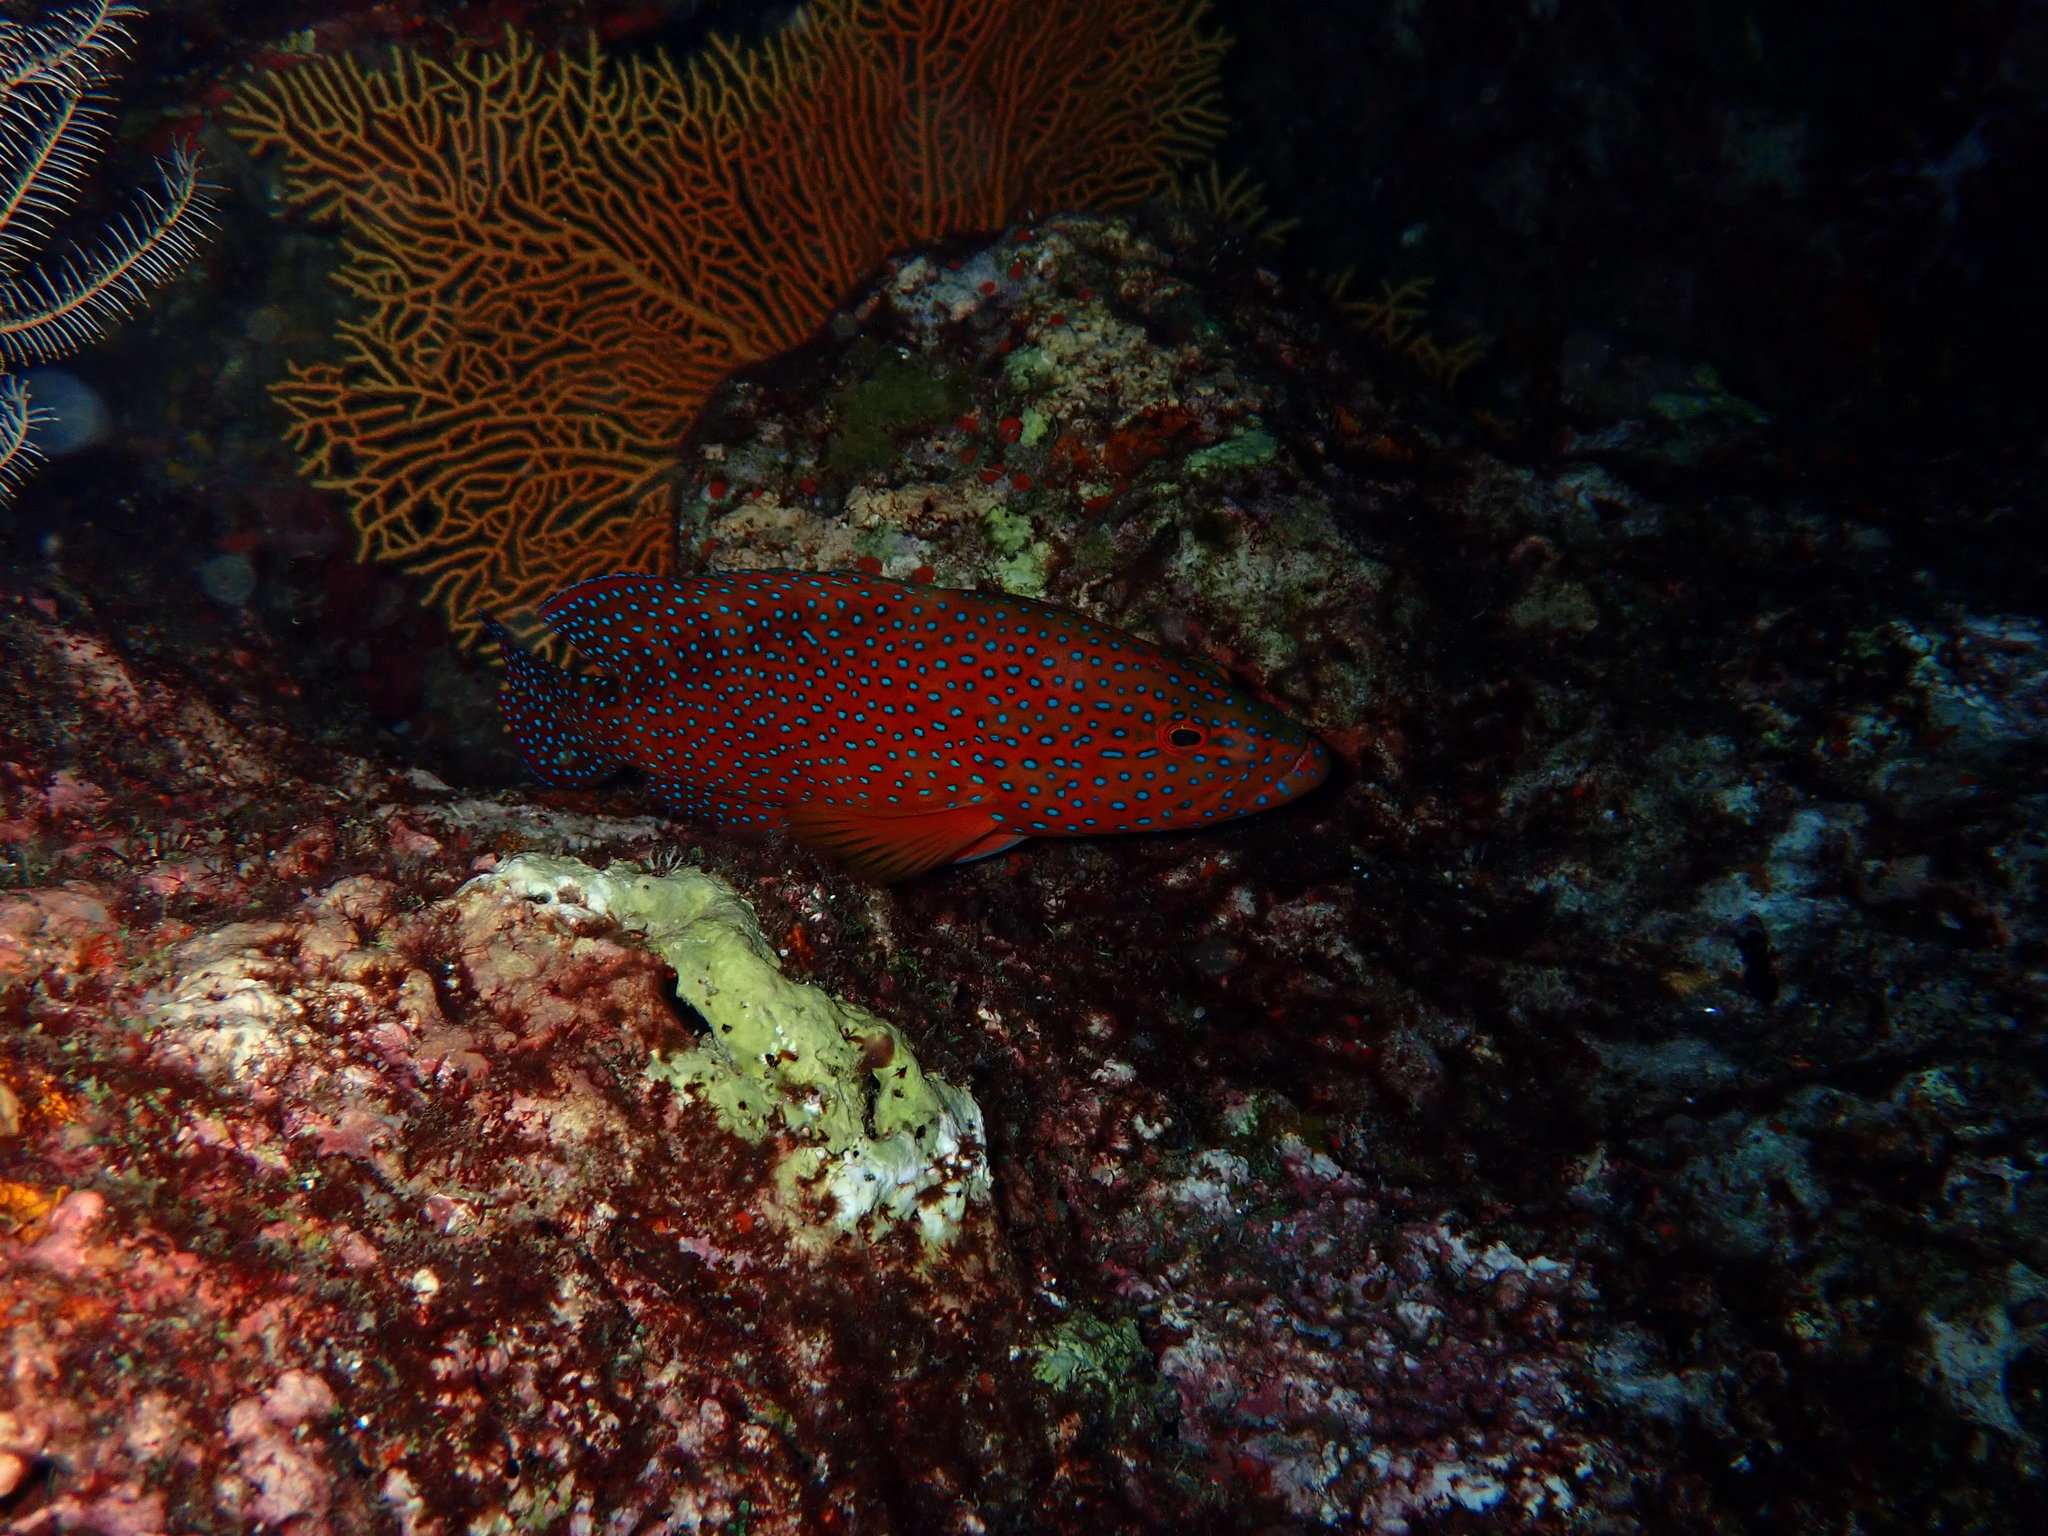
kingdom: Animalia
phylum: Chordata
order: Perciformes
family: Serranidae
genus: Cephalopholis
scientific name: Cephalopholis miniata
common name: Coral hind
